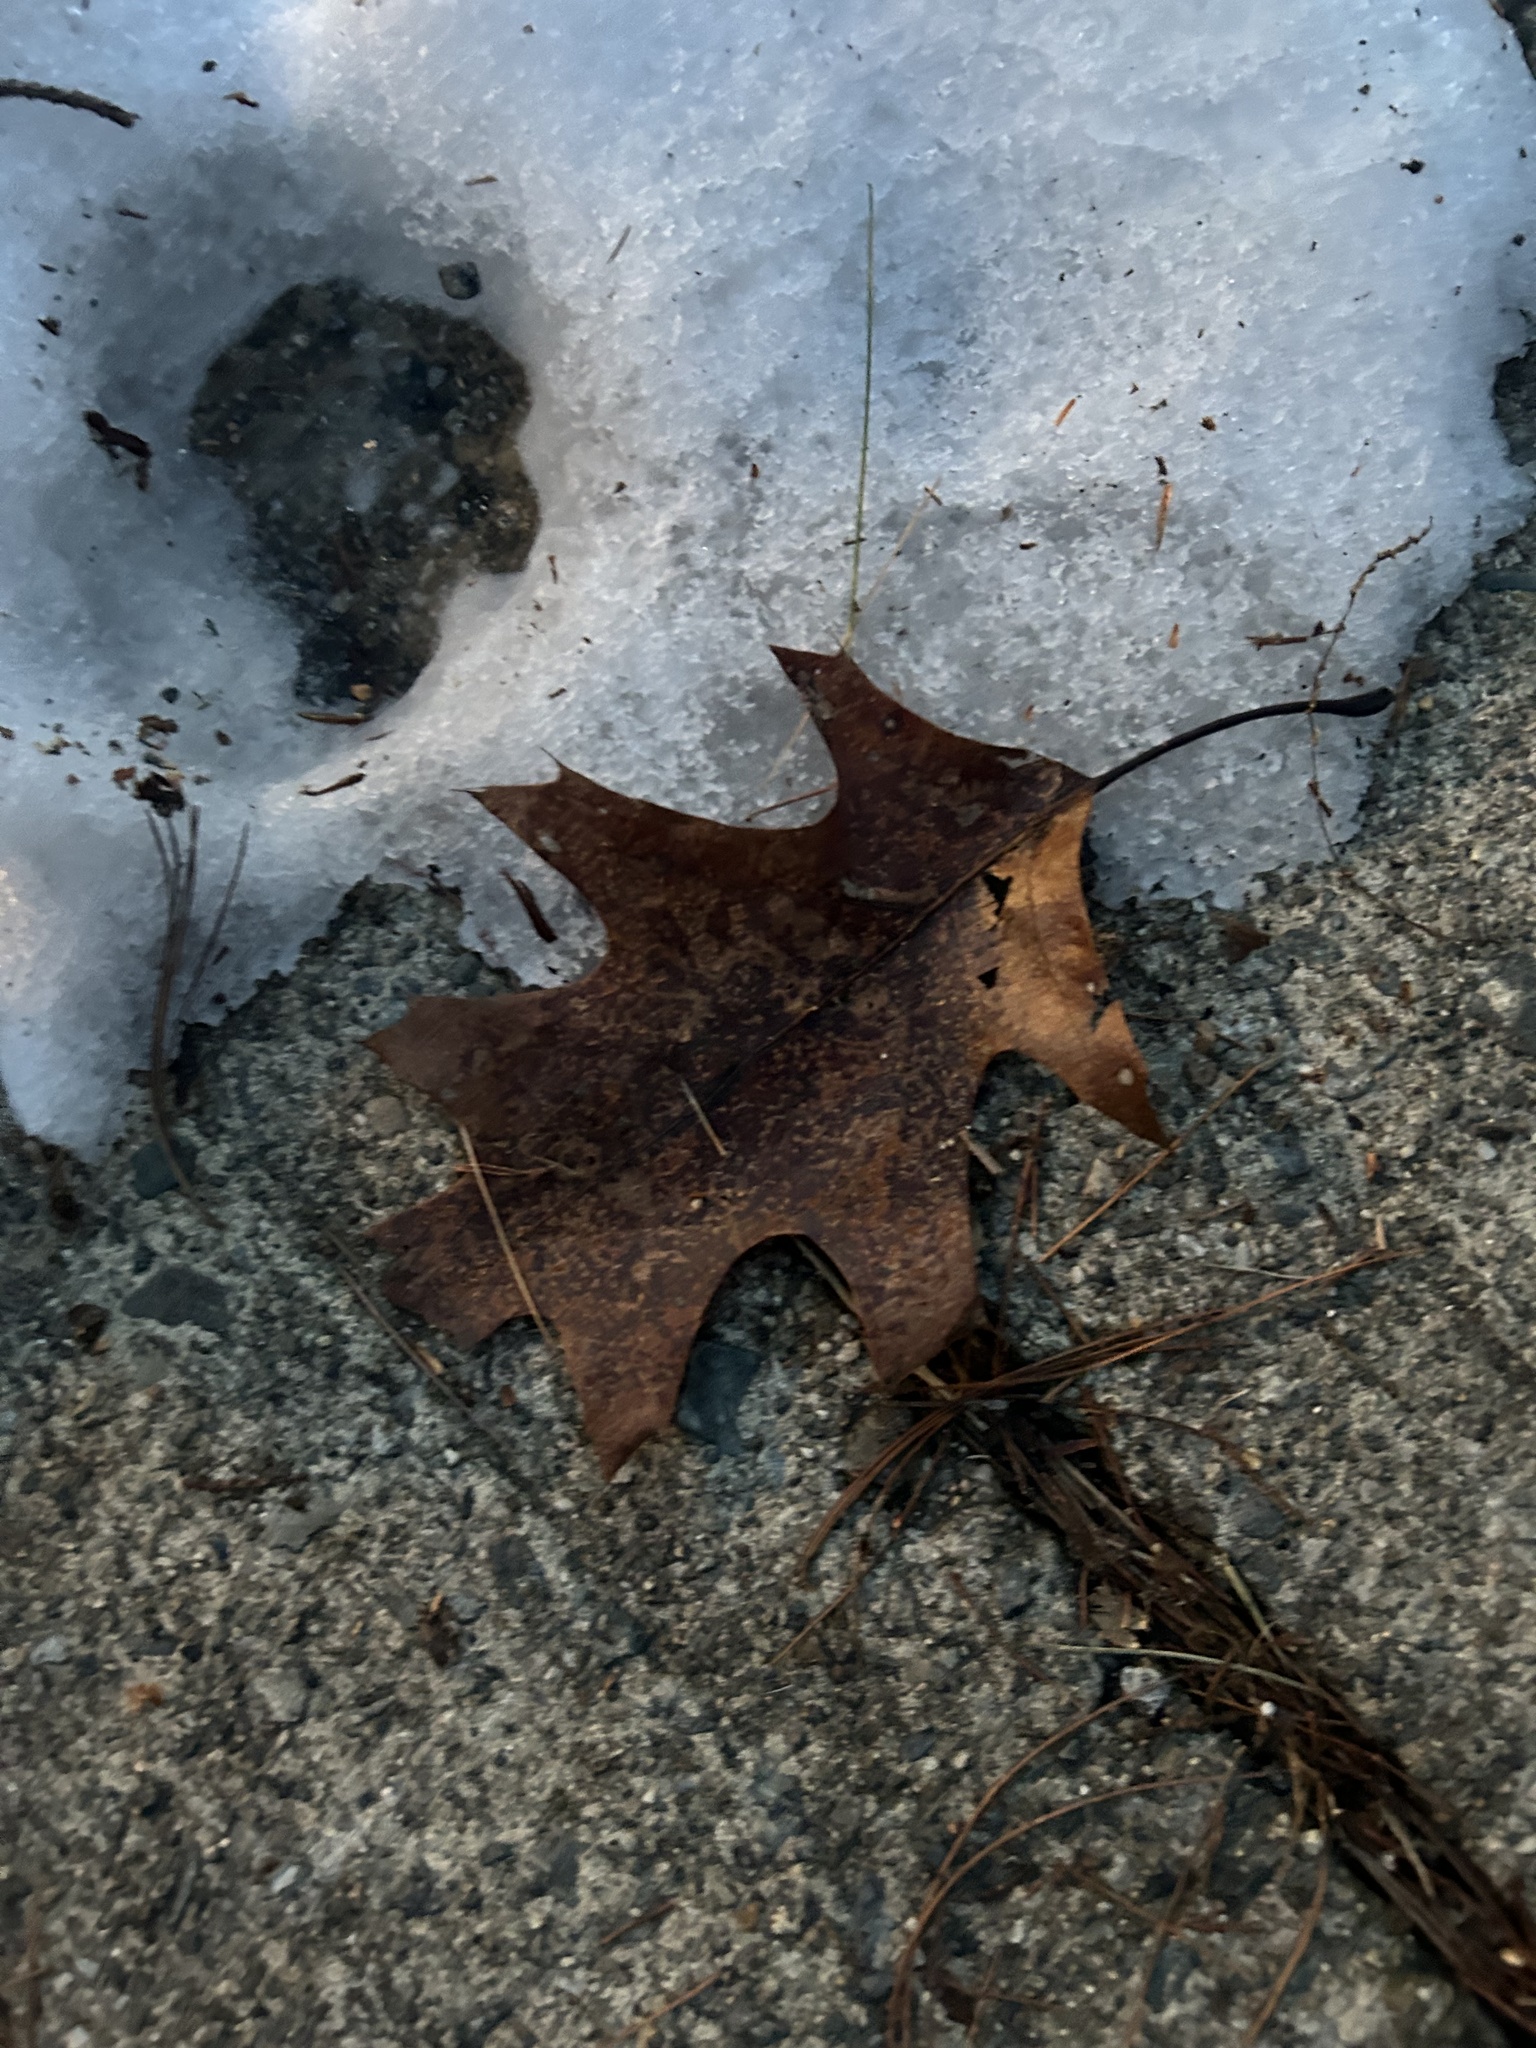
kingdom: Plantae
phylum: Tracheophyta
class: Magnoliopsida
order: Fagales
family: Fagaceae
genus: Quercus
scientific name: Quercus rubra
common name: Red oak
